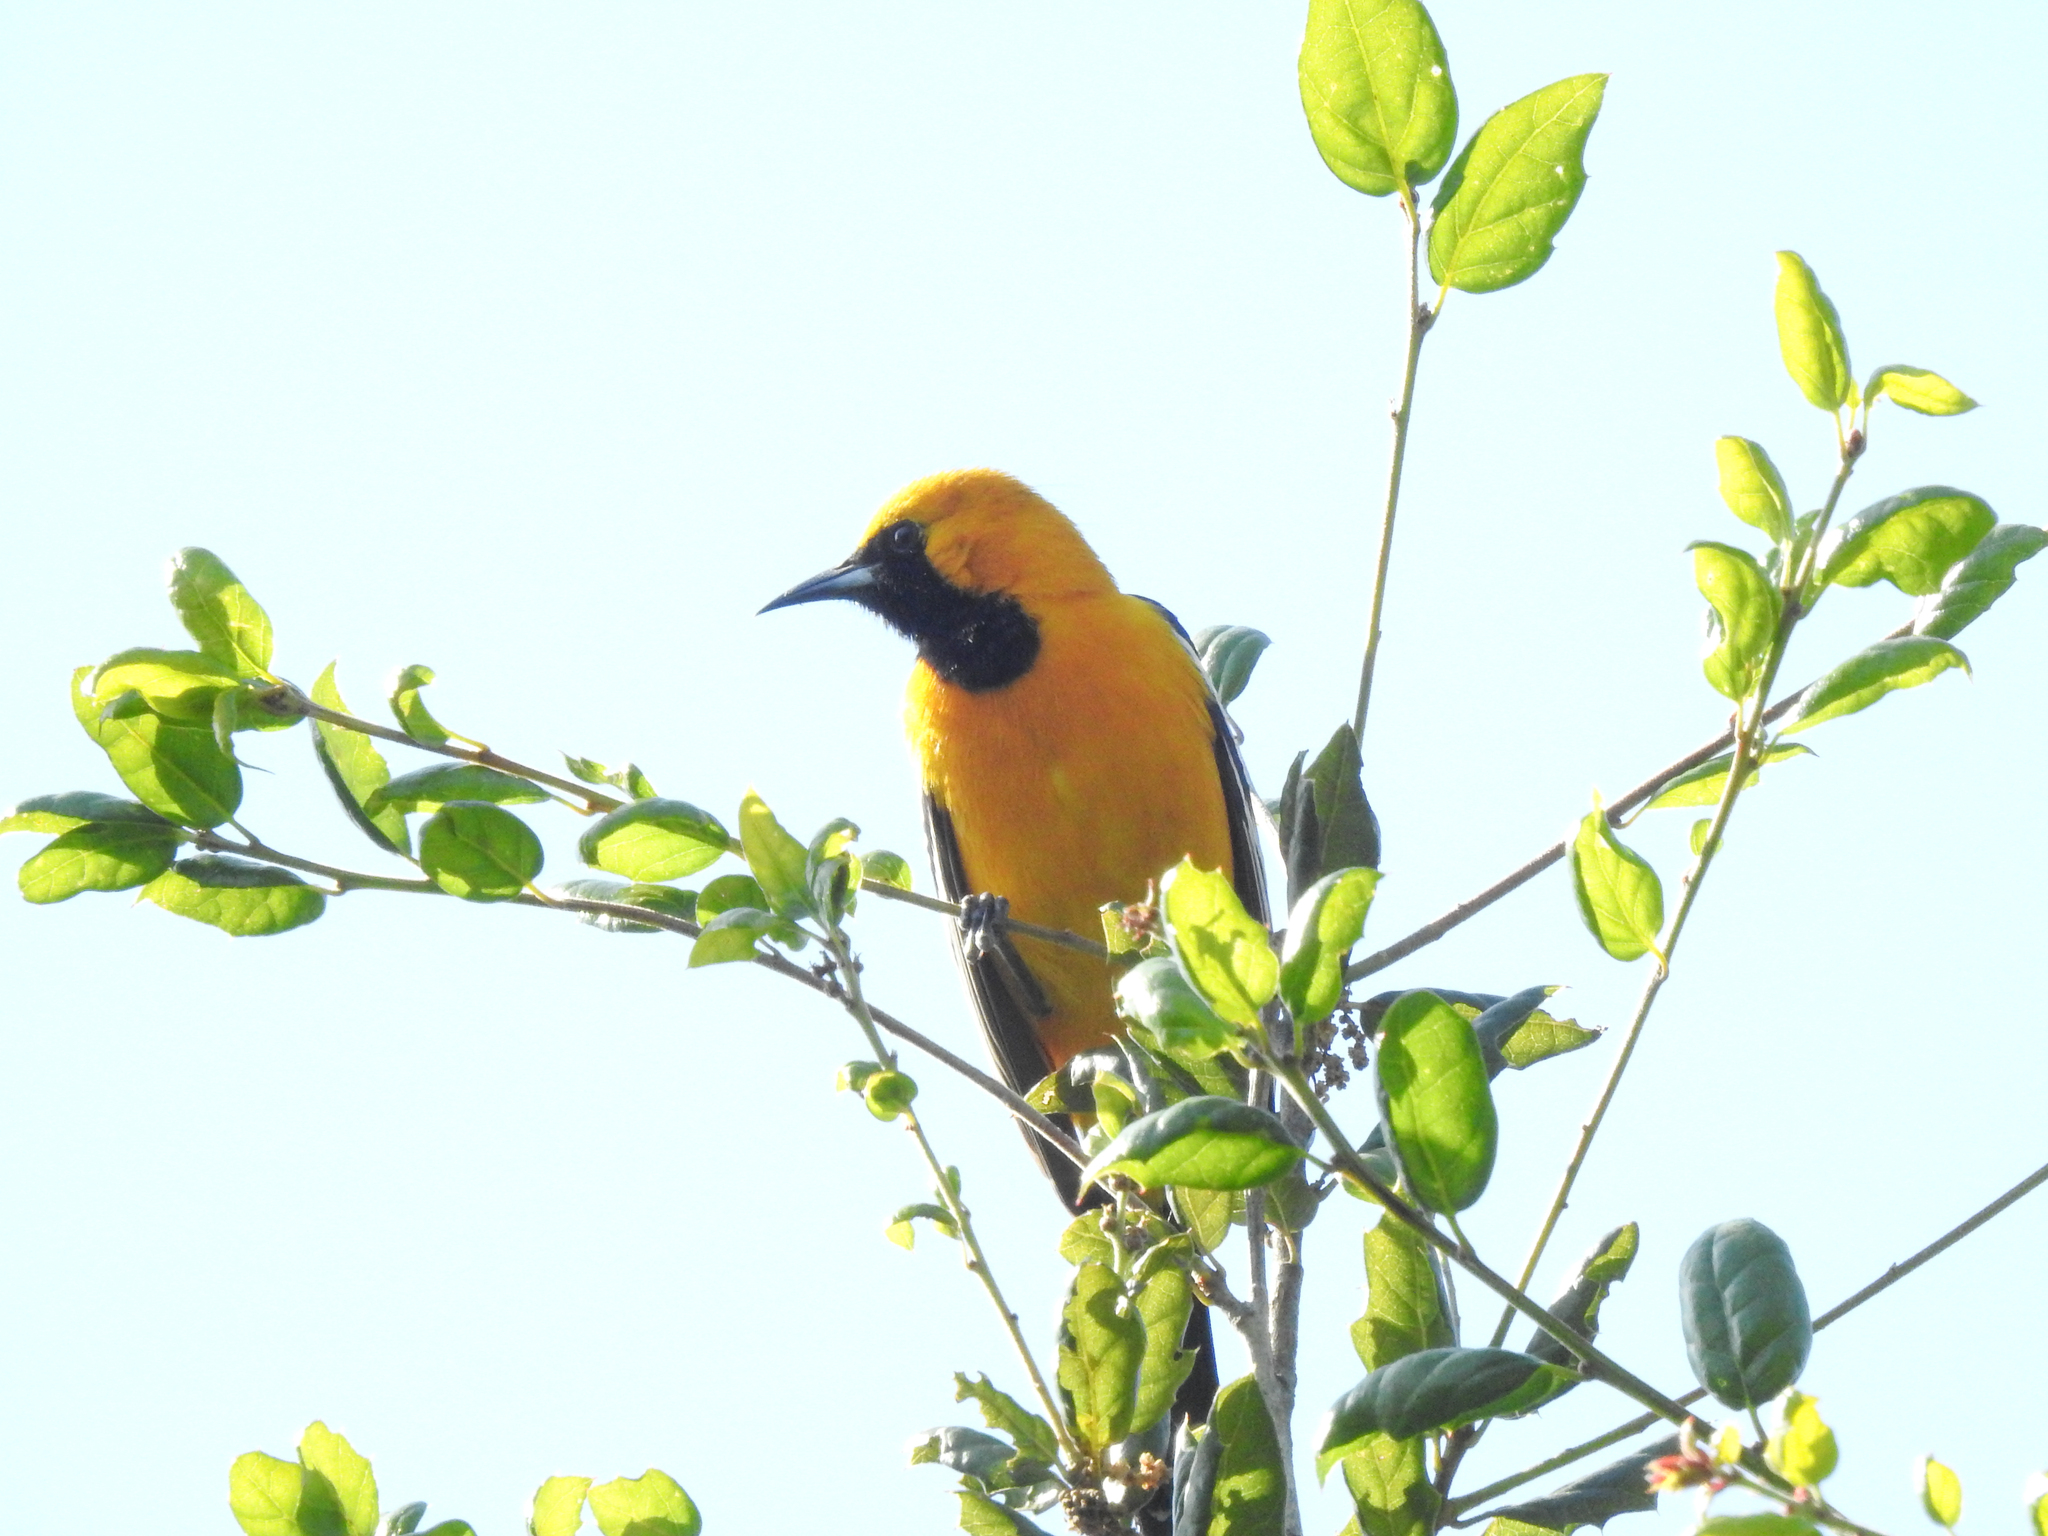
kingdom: Animalia
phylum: Chordata
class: Aves
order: Passeriformes
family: Icteridae
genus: Icterus
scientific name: Icterus cucullatus
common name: Hooded oriole
